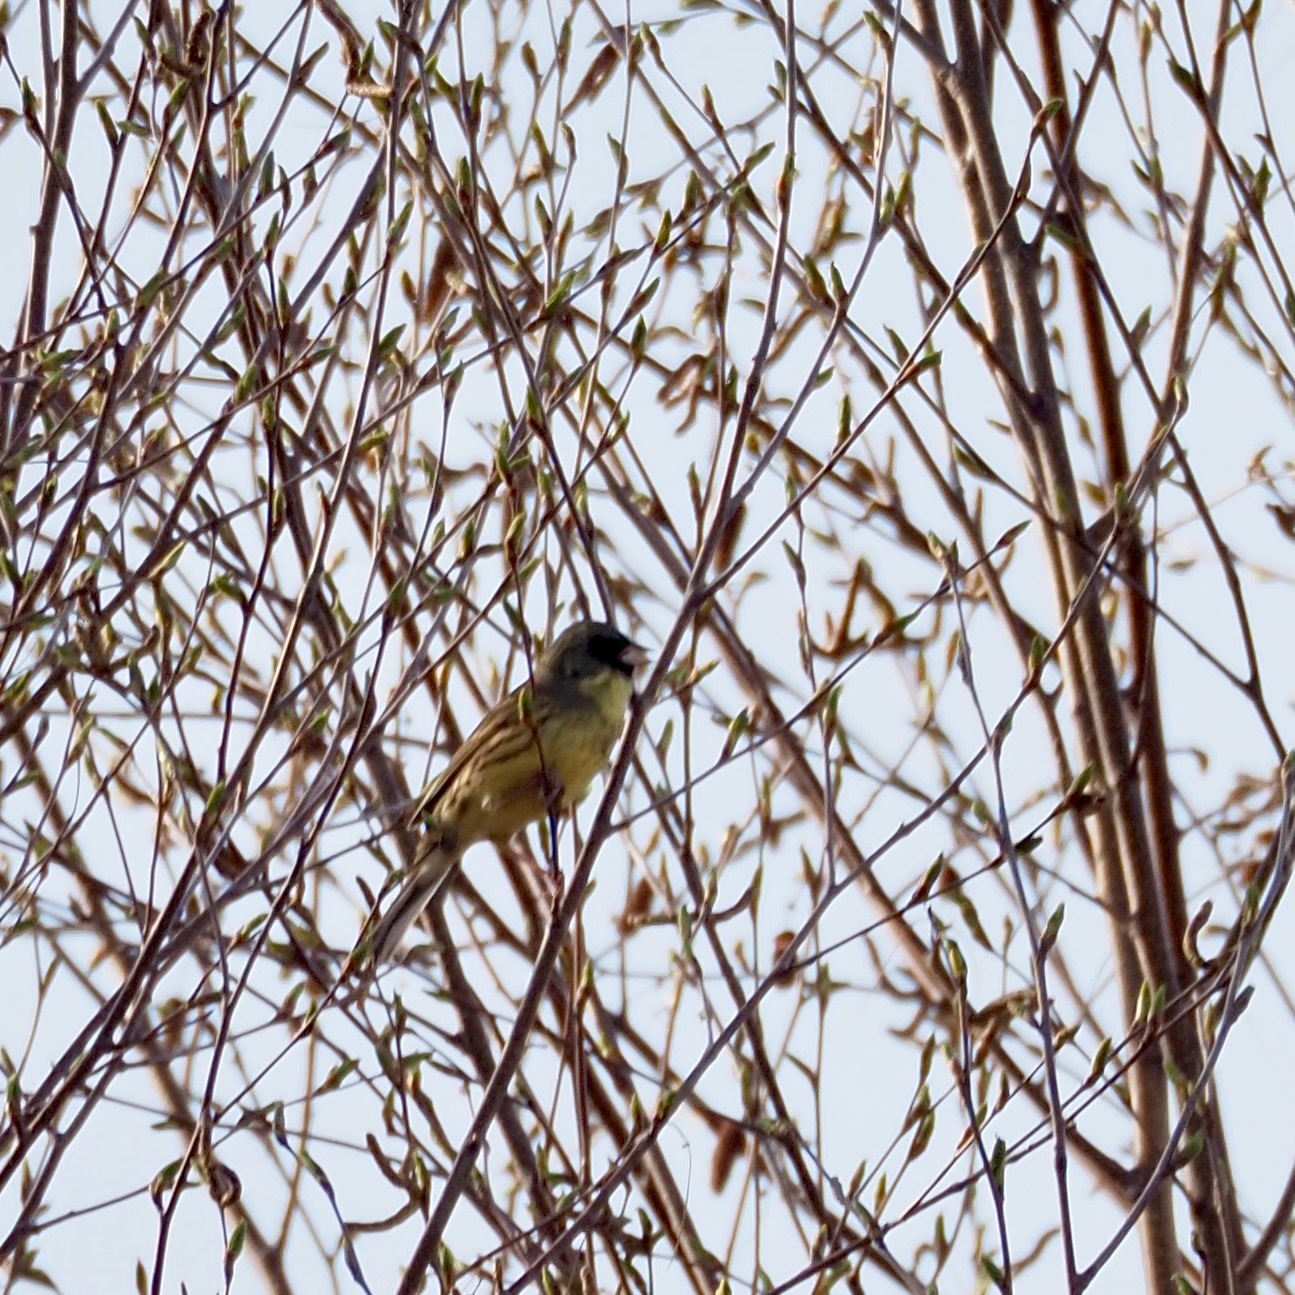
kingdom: Animalia
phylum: Chordata
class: Aves
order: Passeriformes
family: Emberizidae
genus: Emberiza
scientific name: Emberiza personata
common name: Masked bunting
